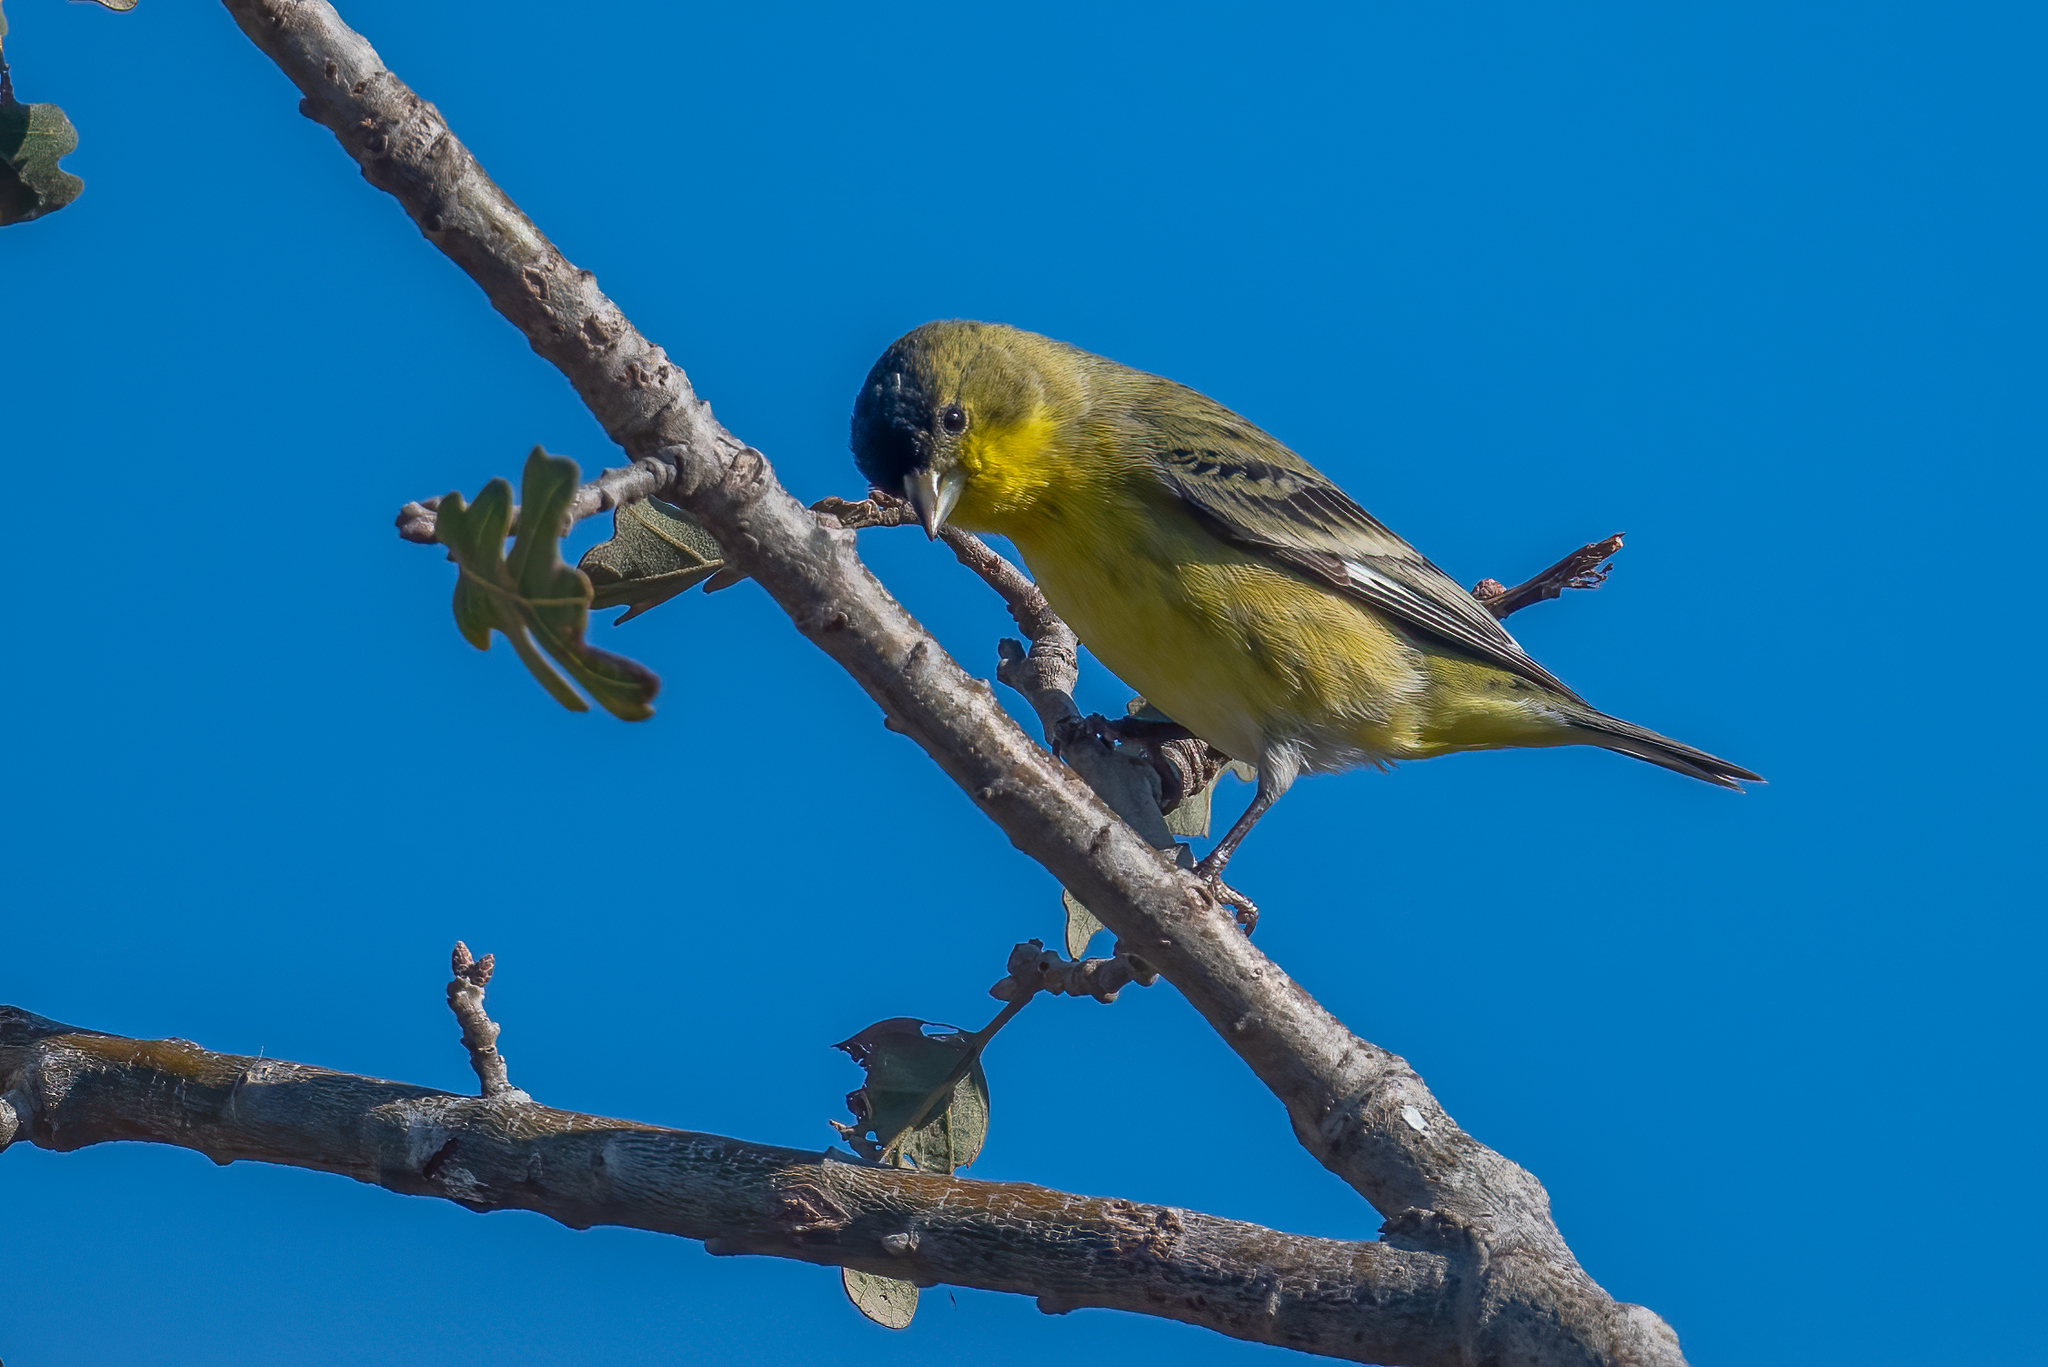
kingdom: Animalia
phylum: Chordata
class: Aves
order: Passeriformes
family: Fringillidae
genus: Spinus
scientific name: Spinus psaltria
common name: Lesser goldfinch
